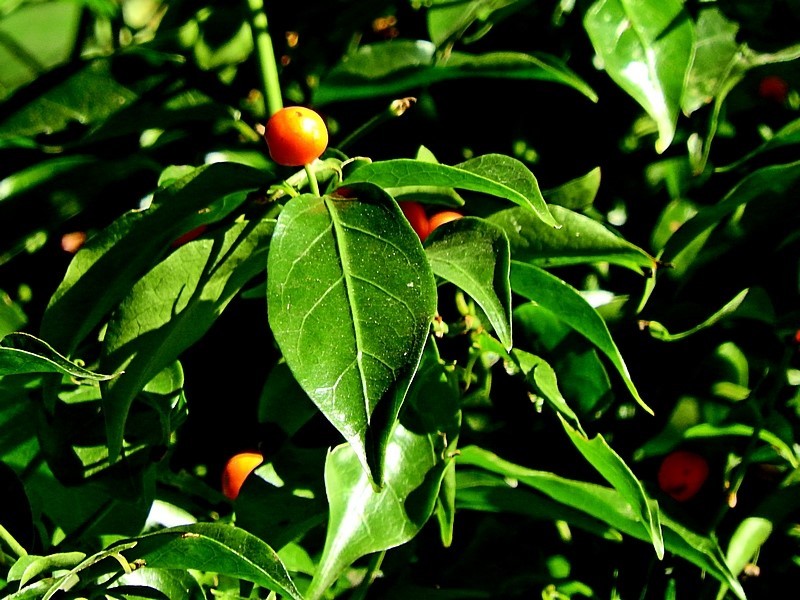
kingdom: Plantae
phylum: Tracheophyta
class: Magnoliopsida
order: Gentianales
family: Rubiaceae
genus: Gynochthodes
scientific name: Gynochthodes jasminoides
